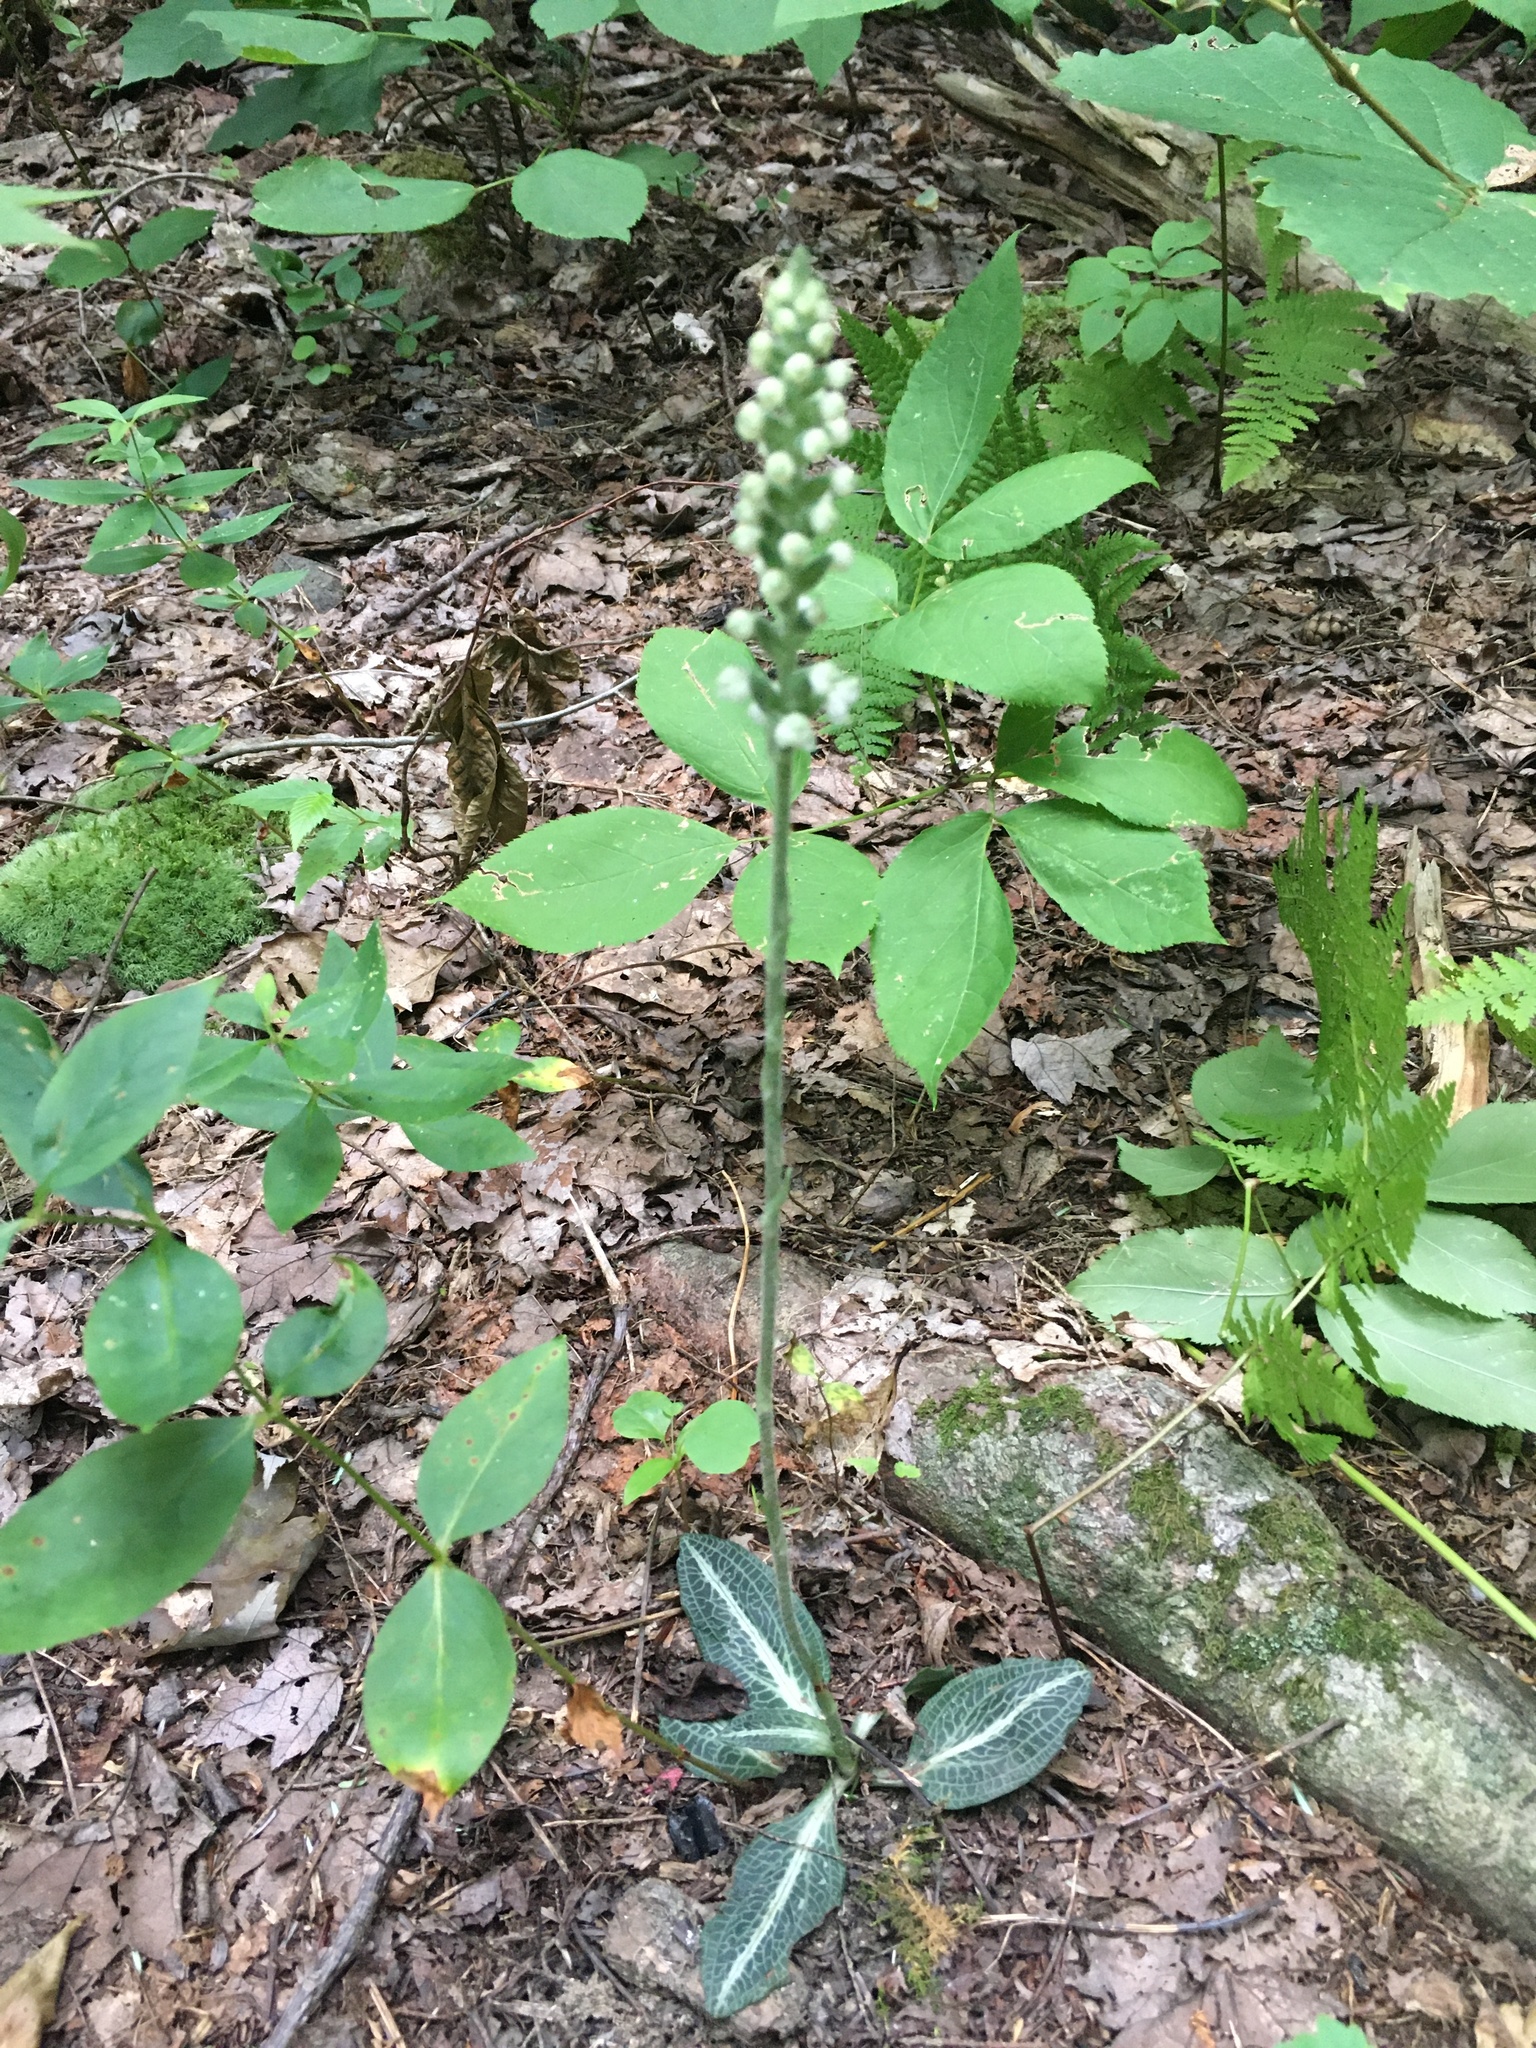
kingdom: Plantae
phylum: Tracheophyta
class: Liliopsida
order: Asparagales
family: Orchidaceae
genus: Goodyera
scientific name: Goodyera pubescens
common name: Downy rattlesnake-plantain
